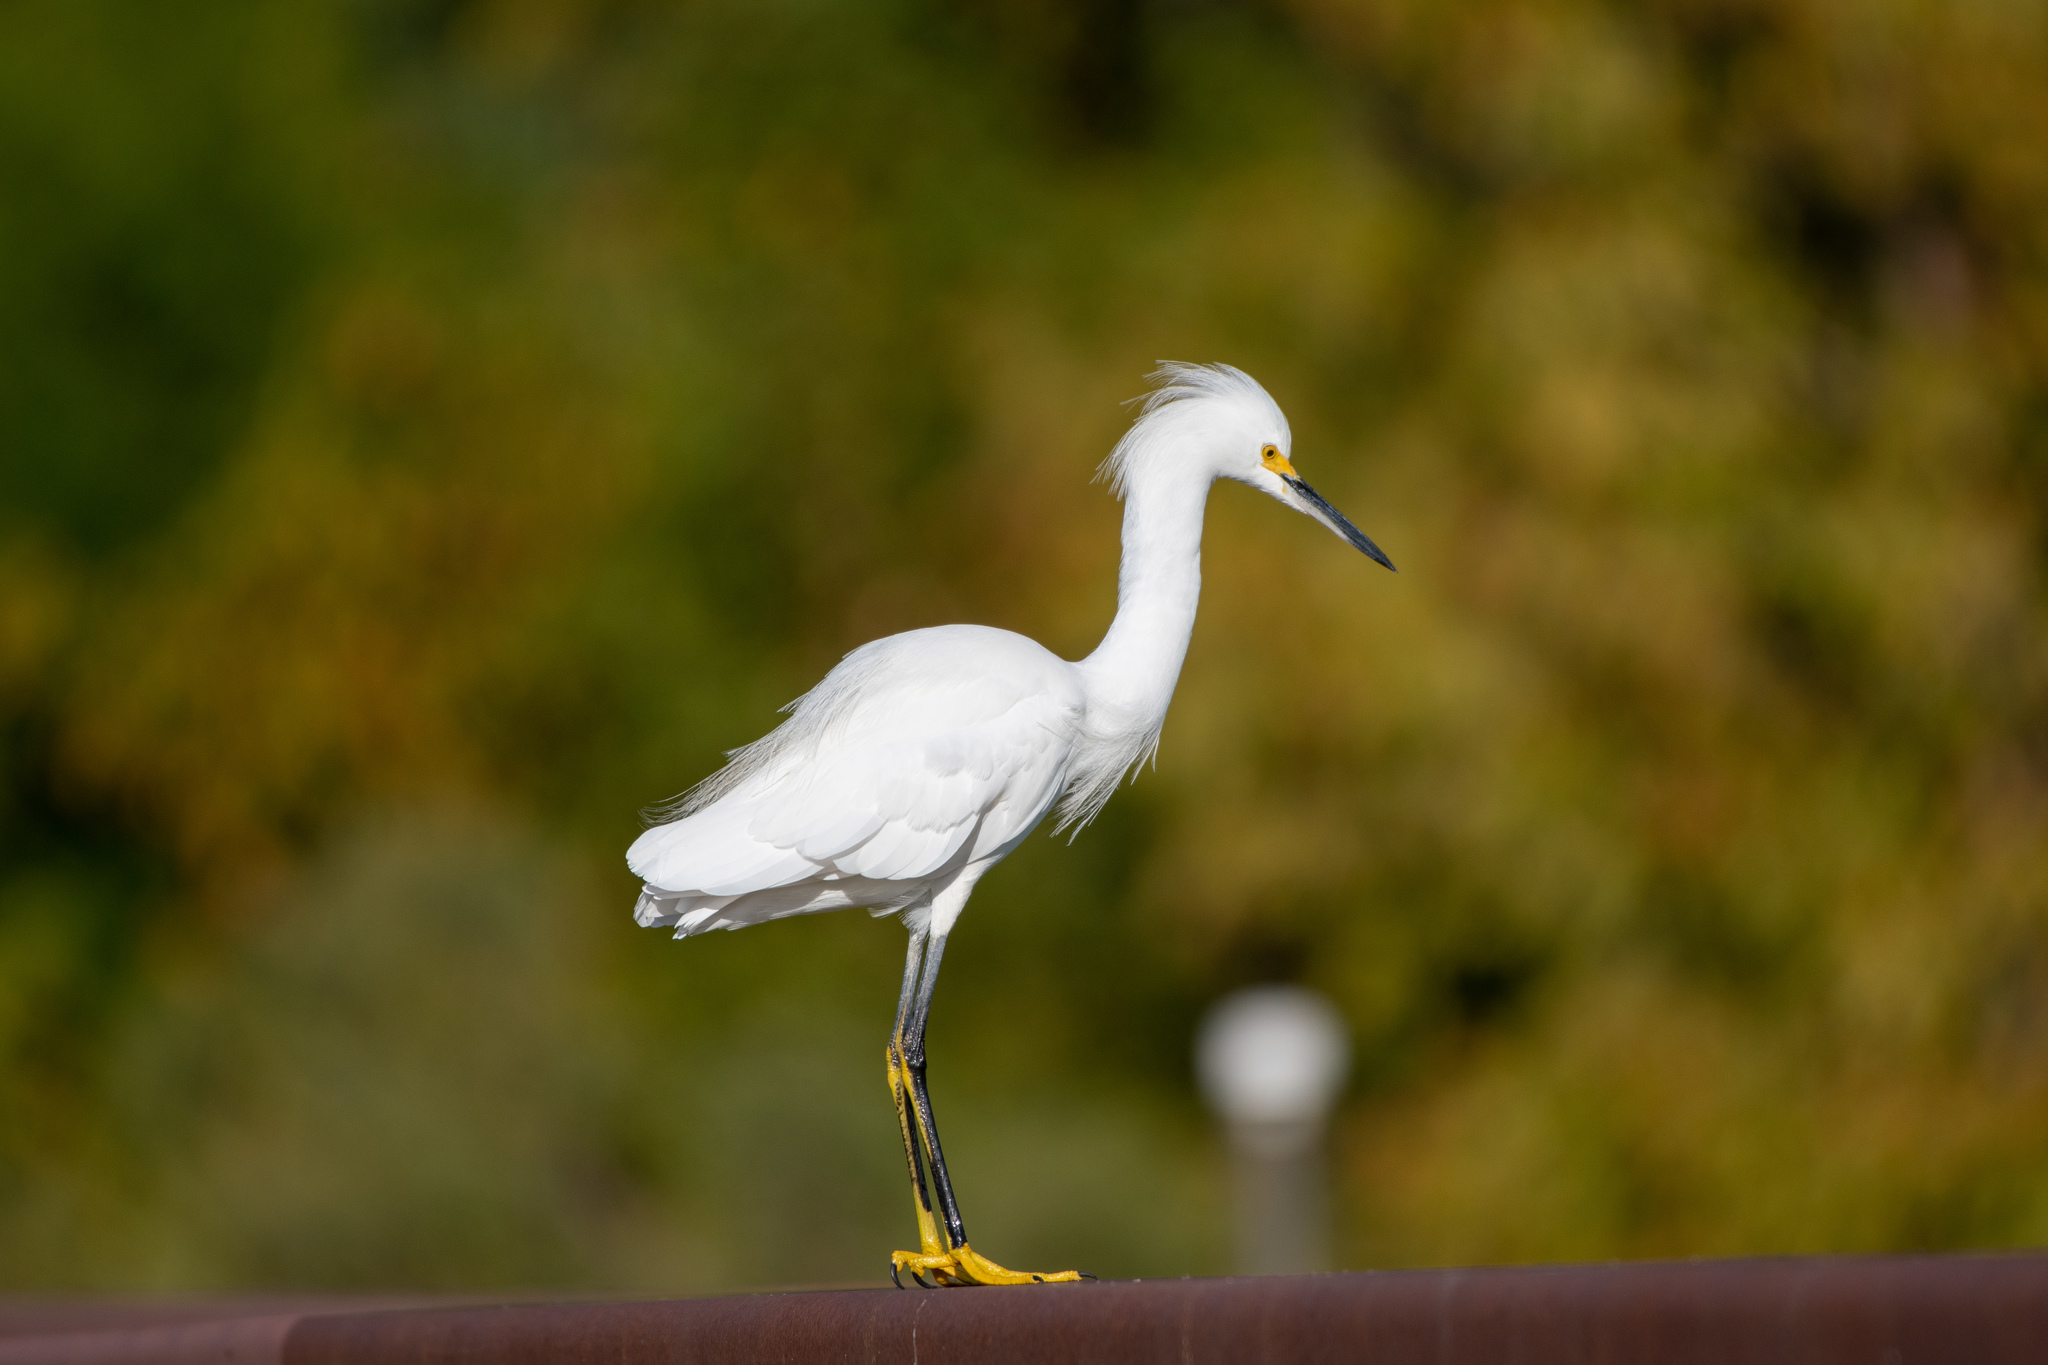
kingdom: Animalia
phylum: Chordata
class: Aves
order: Pelecaniformes
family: Ardeidae
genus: Egretta
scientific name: Egretta thula
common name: Snowy egret
